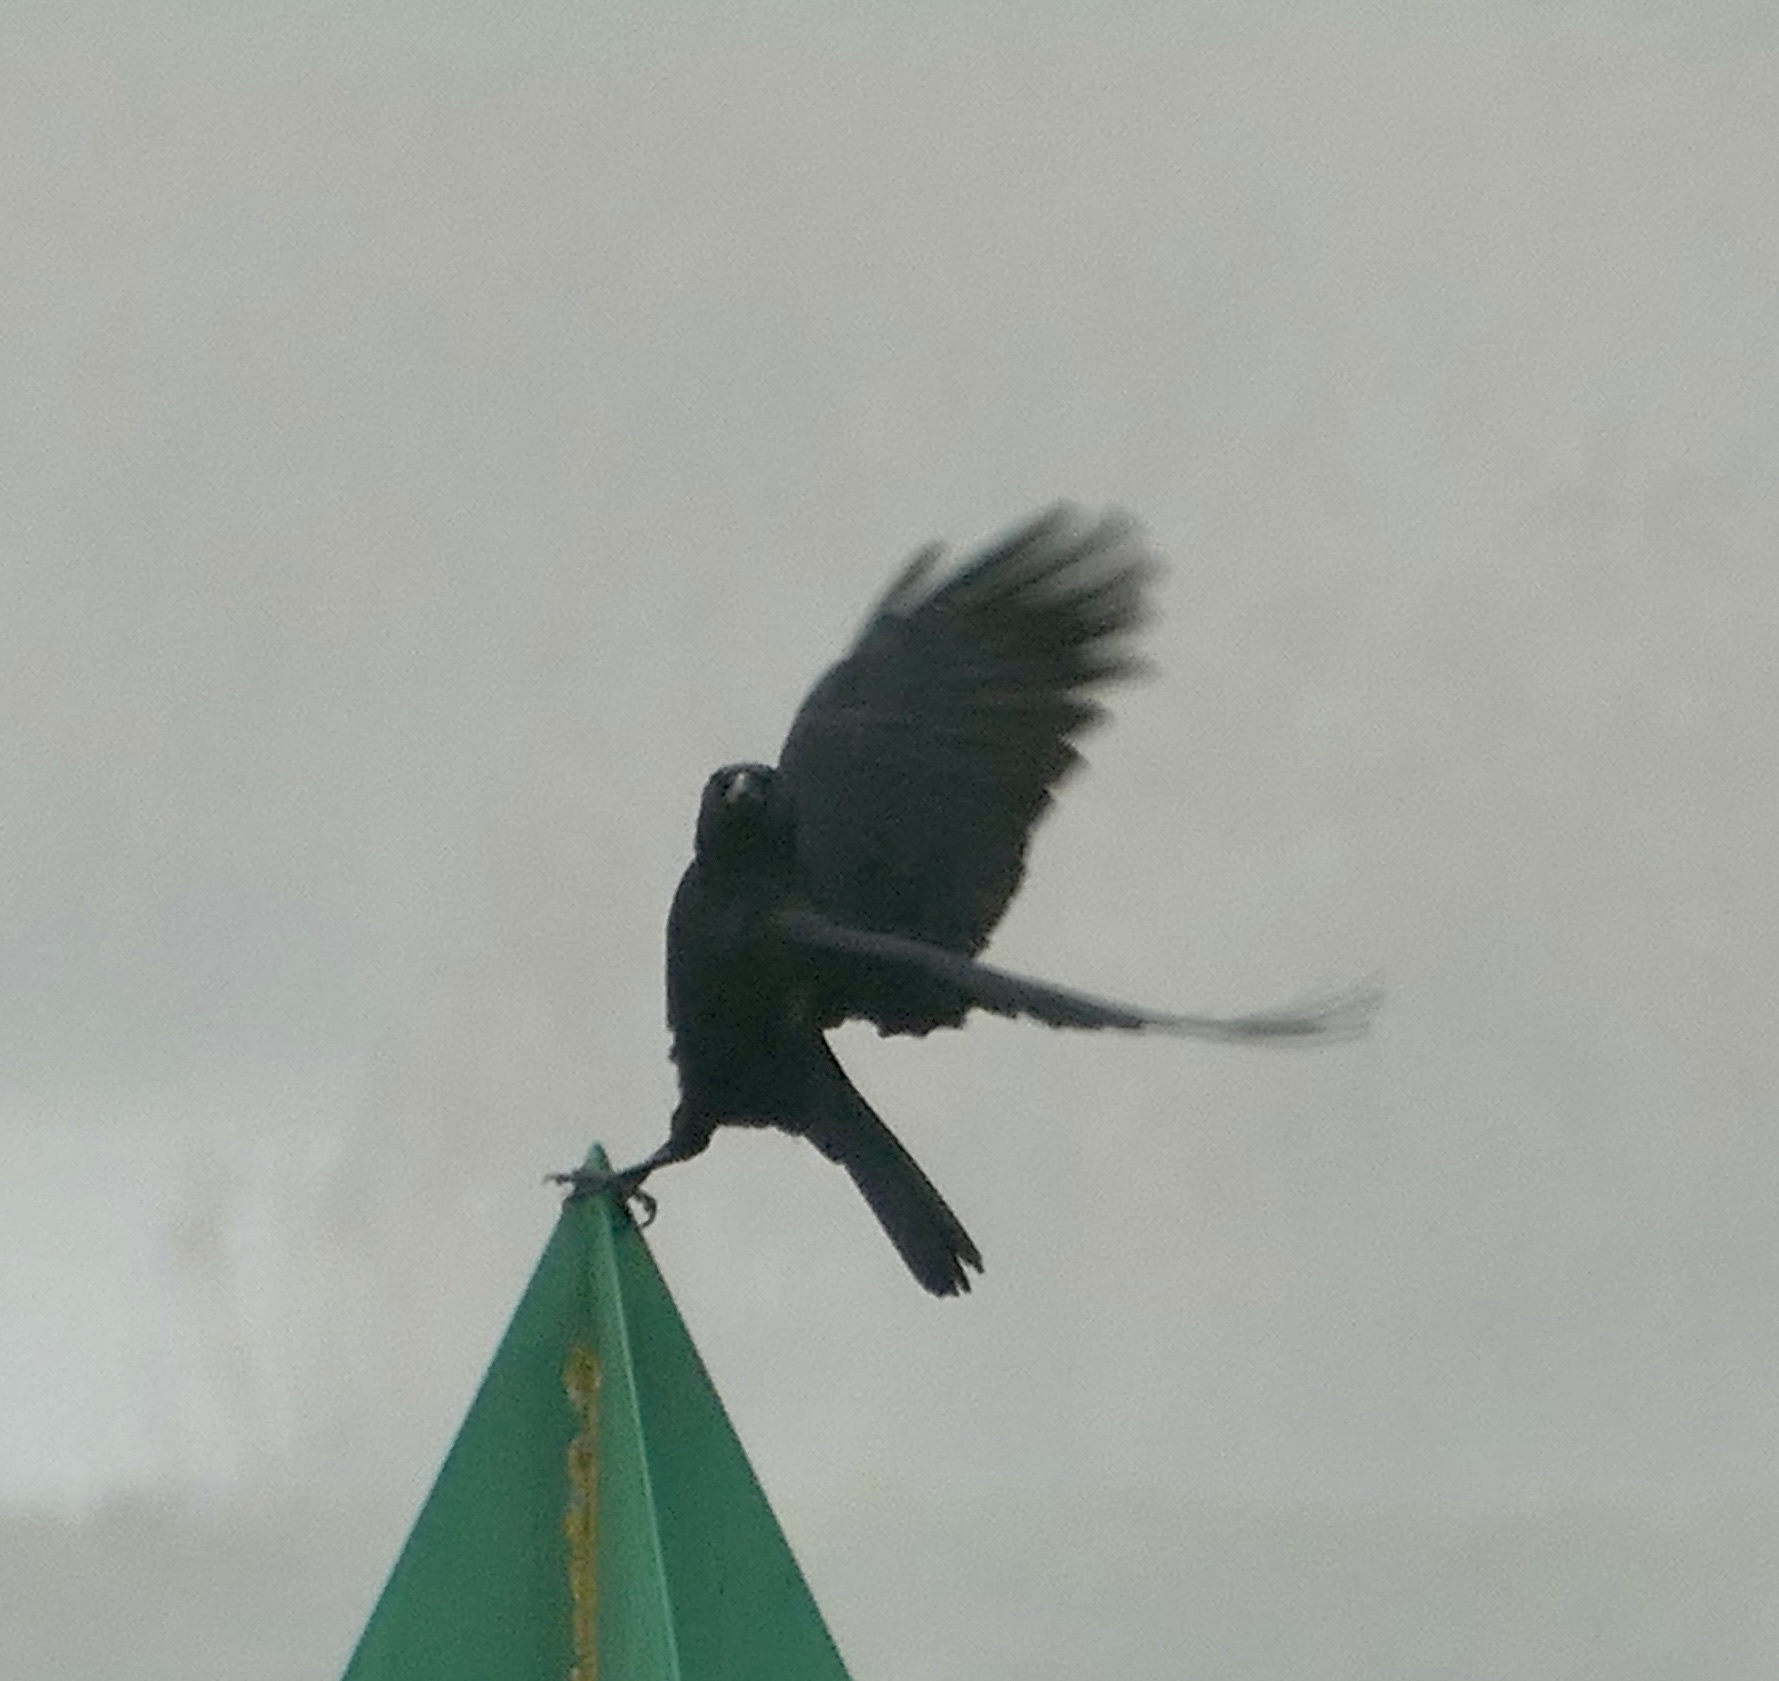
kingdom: Animalia
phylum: Chordata
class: Aves
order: Passeriformes
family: Corvidae
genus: Corvus
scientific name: Corvus corone
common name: Carrion crow
